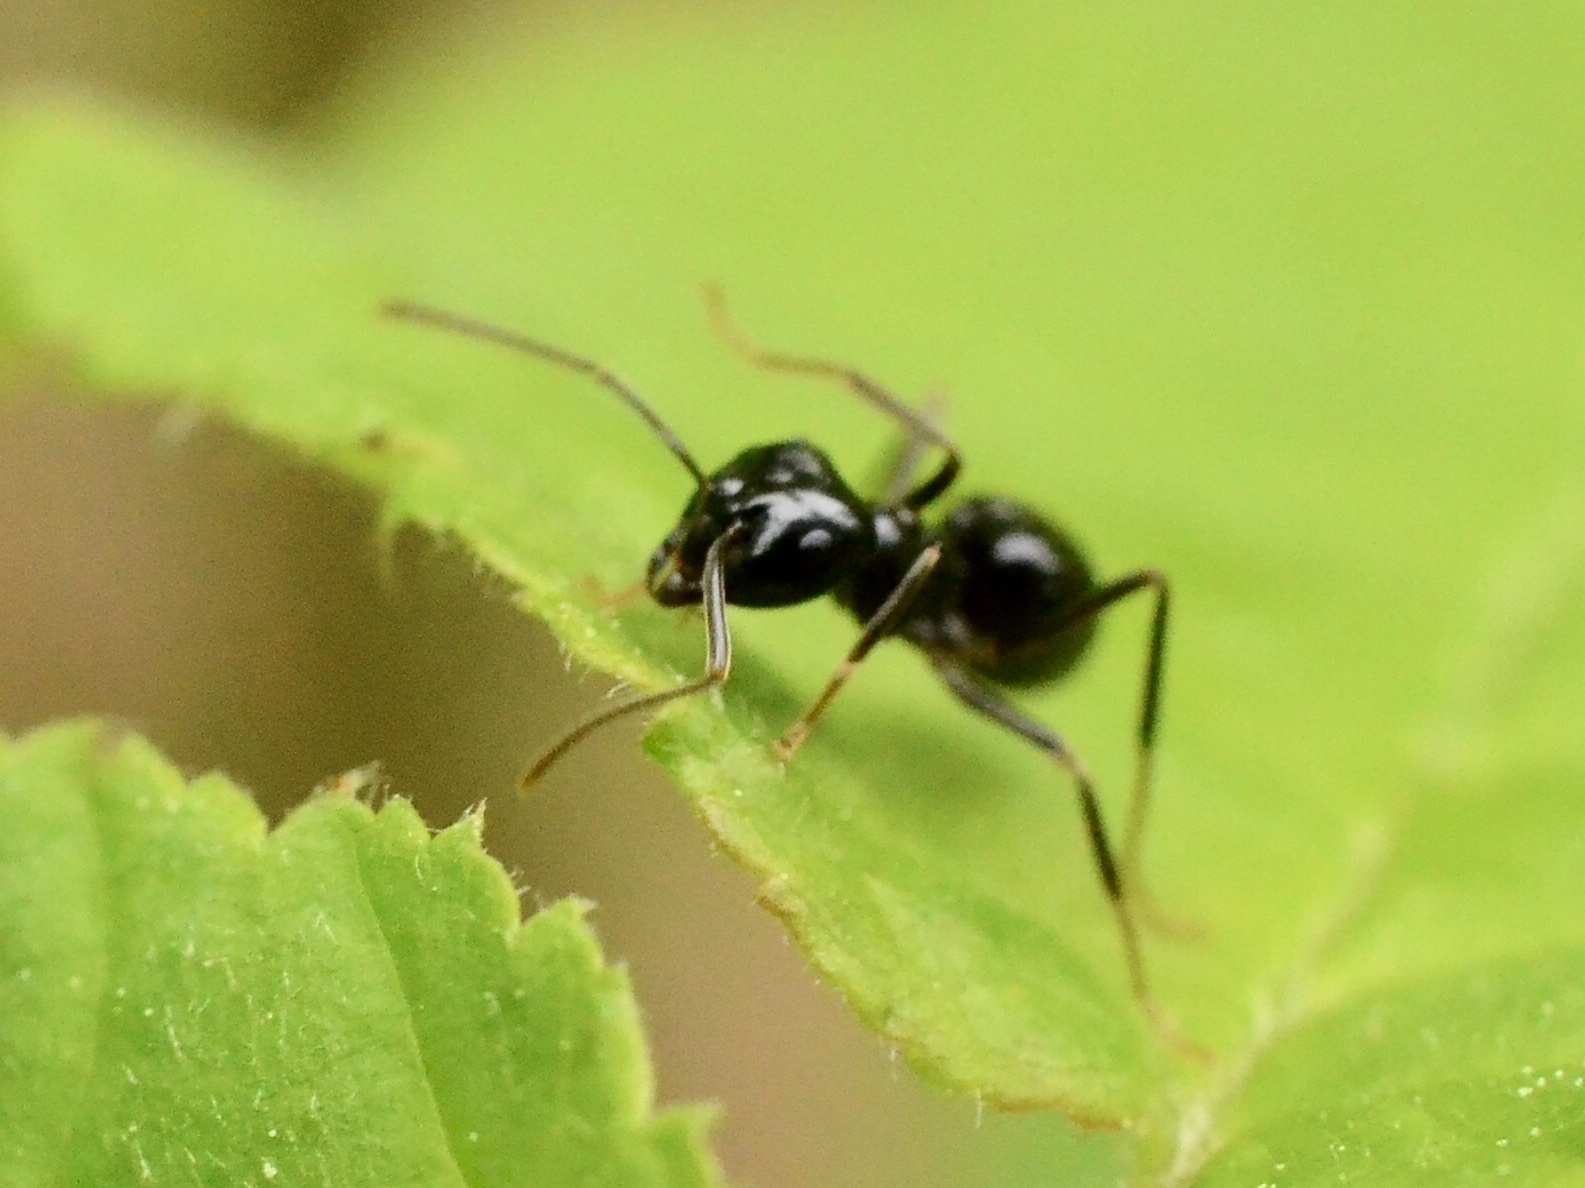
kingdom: Animalia
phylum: Arthropoda
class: Insecta
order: Hymenoptera
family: Formicidae
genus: Lasius
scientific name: Lasius fuliginosus
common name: Jet ant
